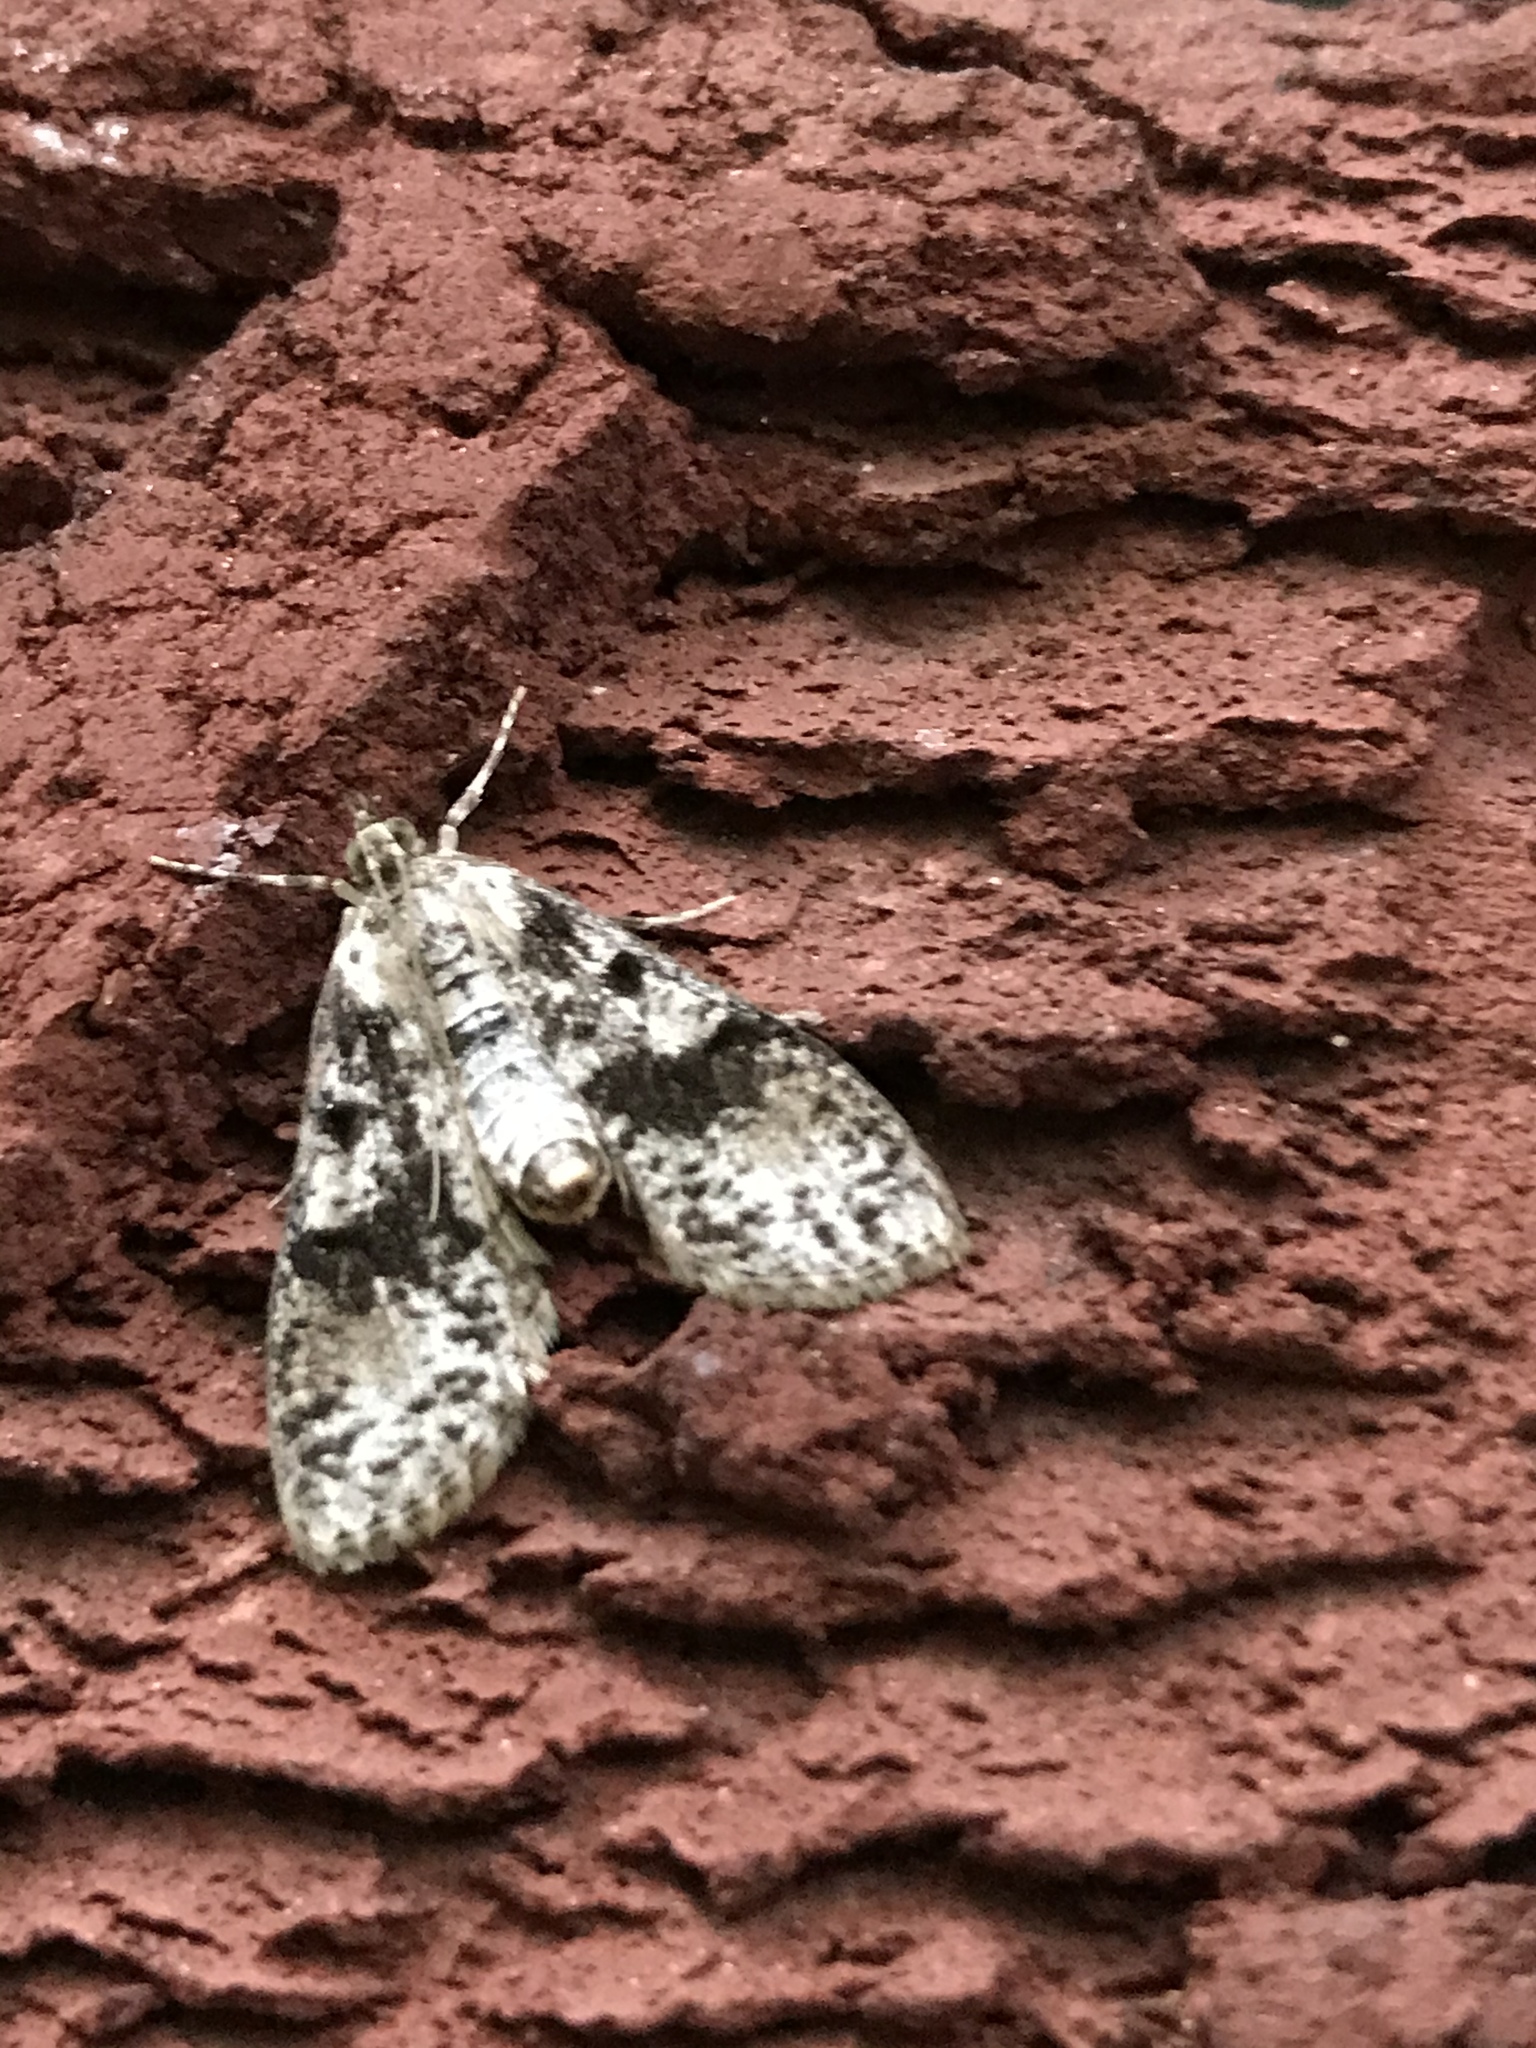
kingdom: Animalia
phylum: Arthropoda
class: Insecta
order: Lepidoptera
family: Crambidae
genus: Palpita
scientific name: Palpita magniferalis
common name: Splendid palpita moth
